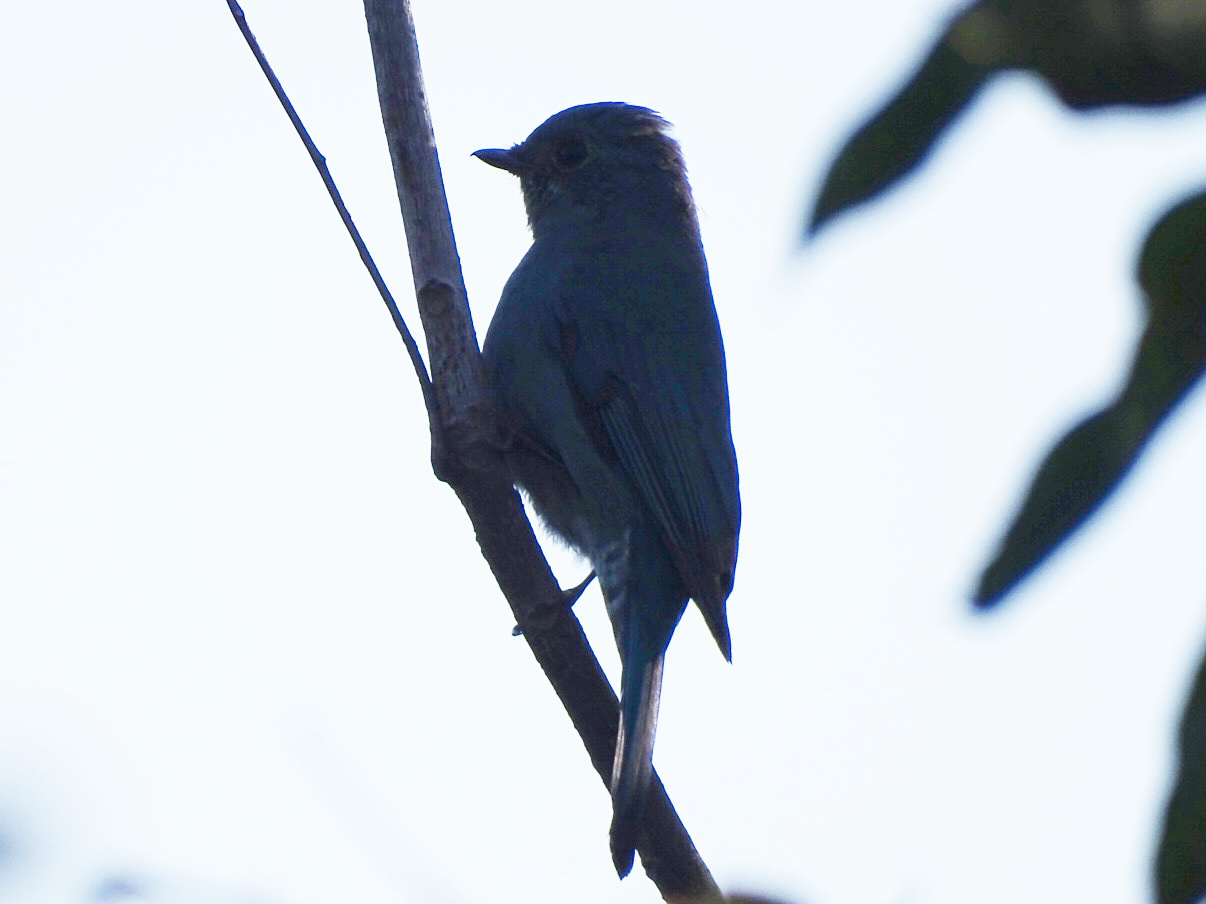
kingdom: Animalia
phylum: Chordata
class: Aves
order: Passeriformes
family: Muscicapidae
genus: Eumyias
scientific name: Eumyias thalassinus
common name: Verditer flycatcher
